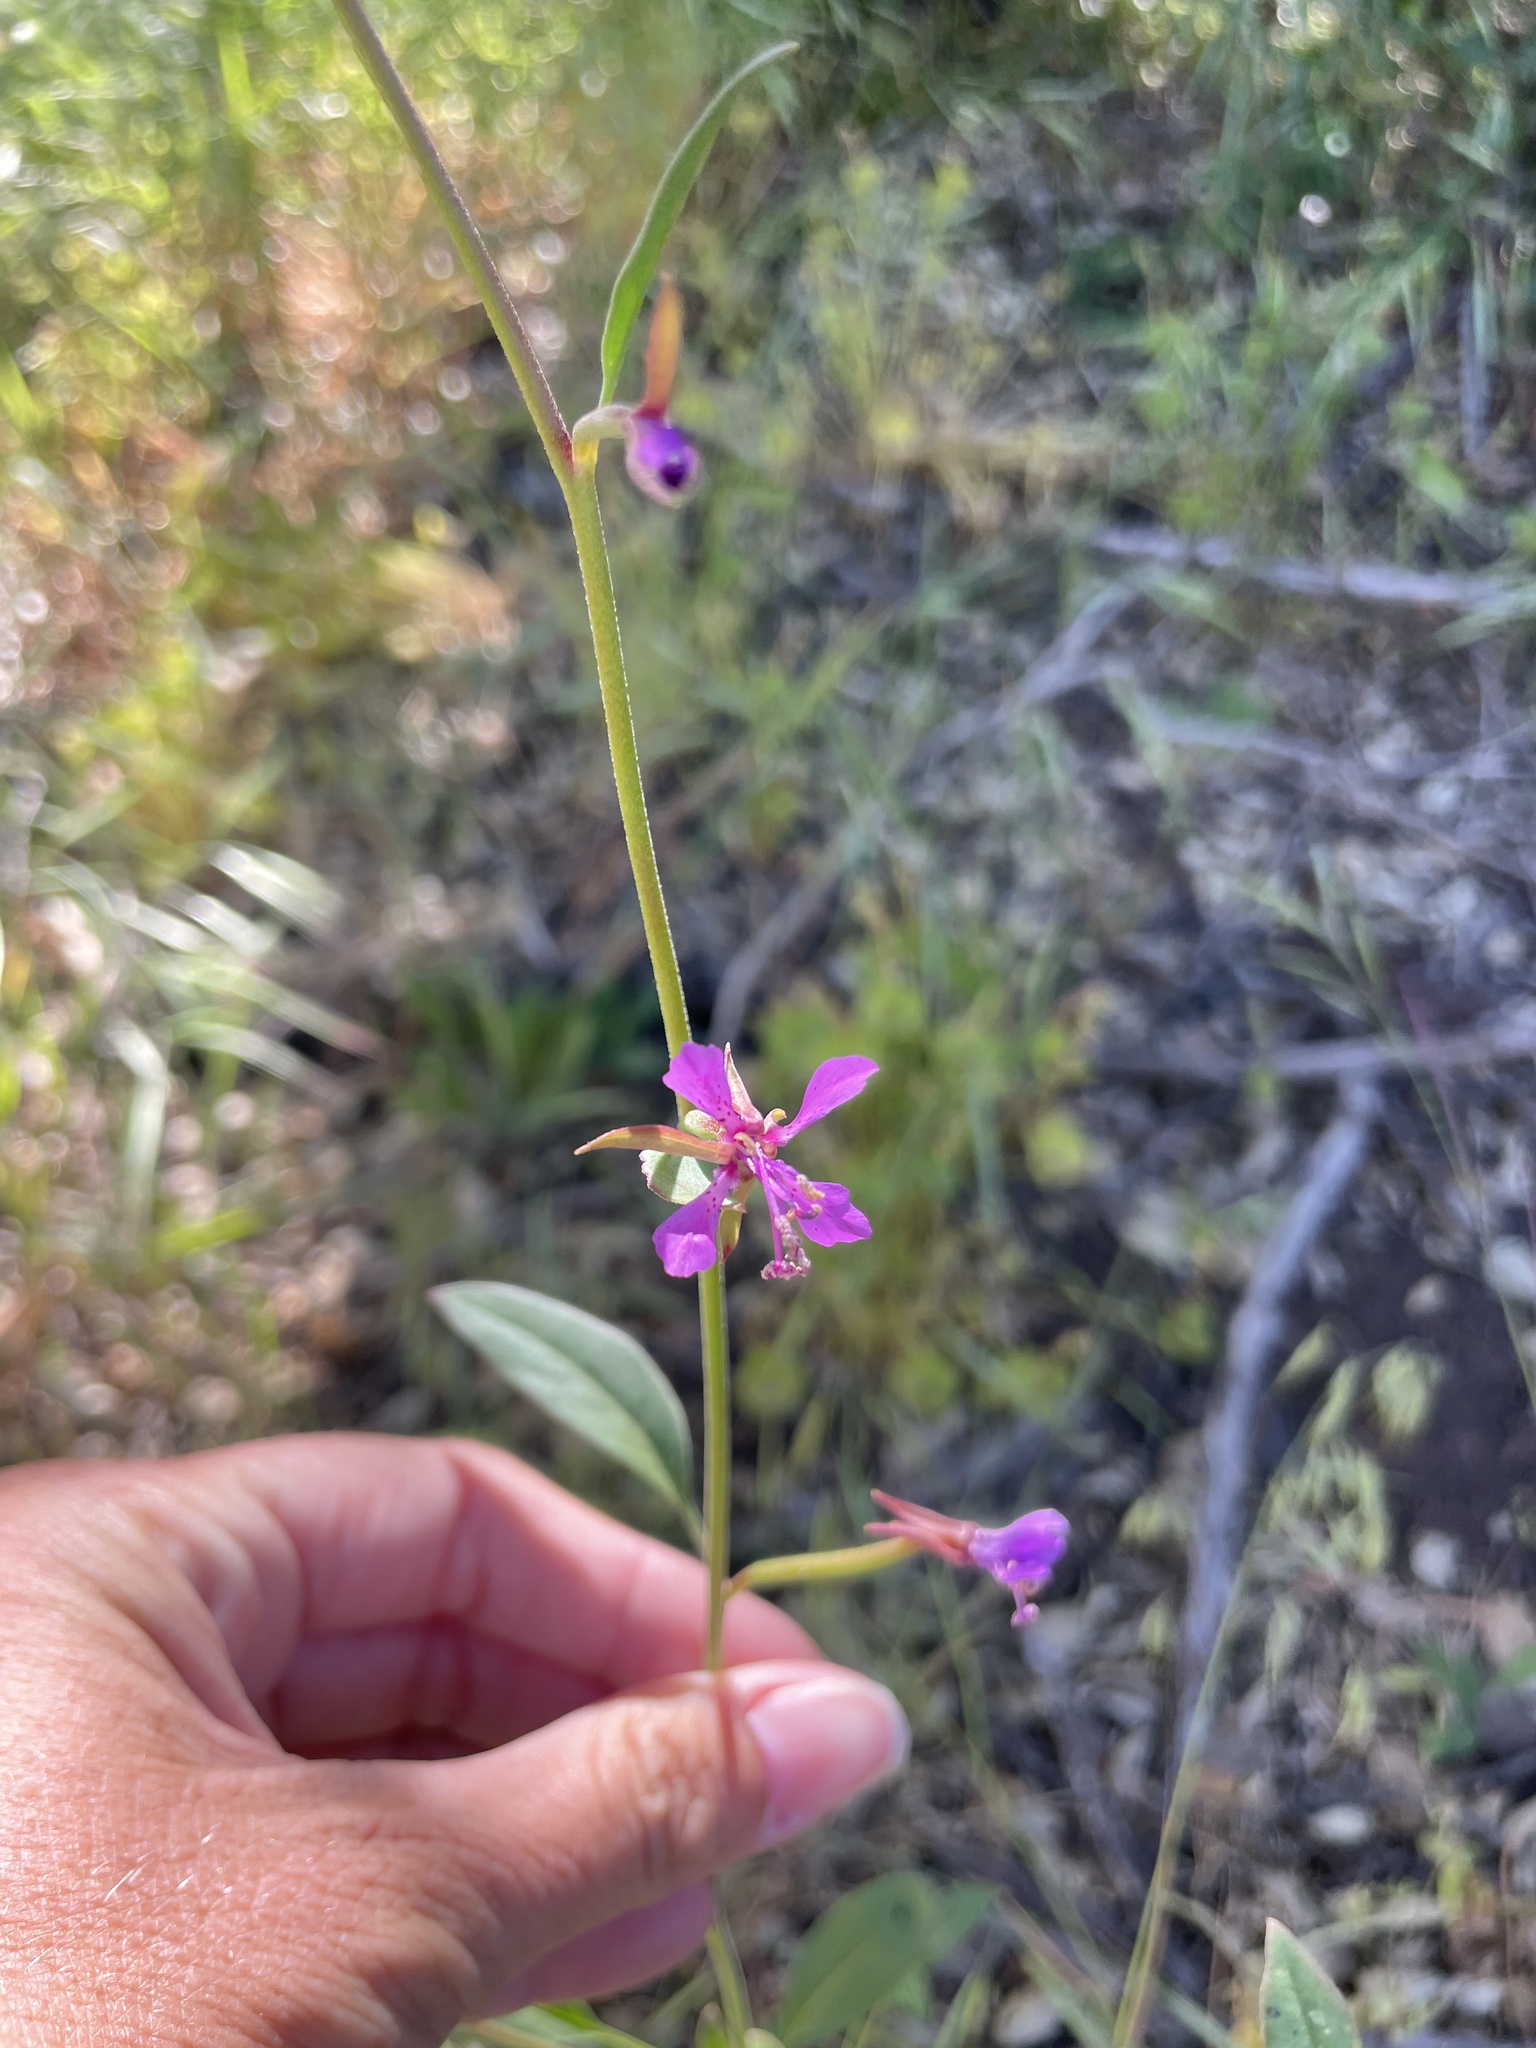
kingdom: Plantae
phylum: Tracheophyta
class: Magnoliopsida
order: Myrtales
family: Onagraceae
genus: Clarkia
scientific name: Clarkia delicata
